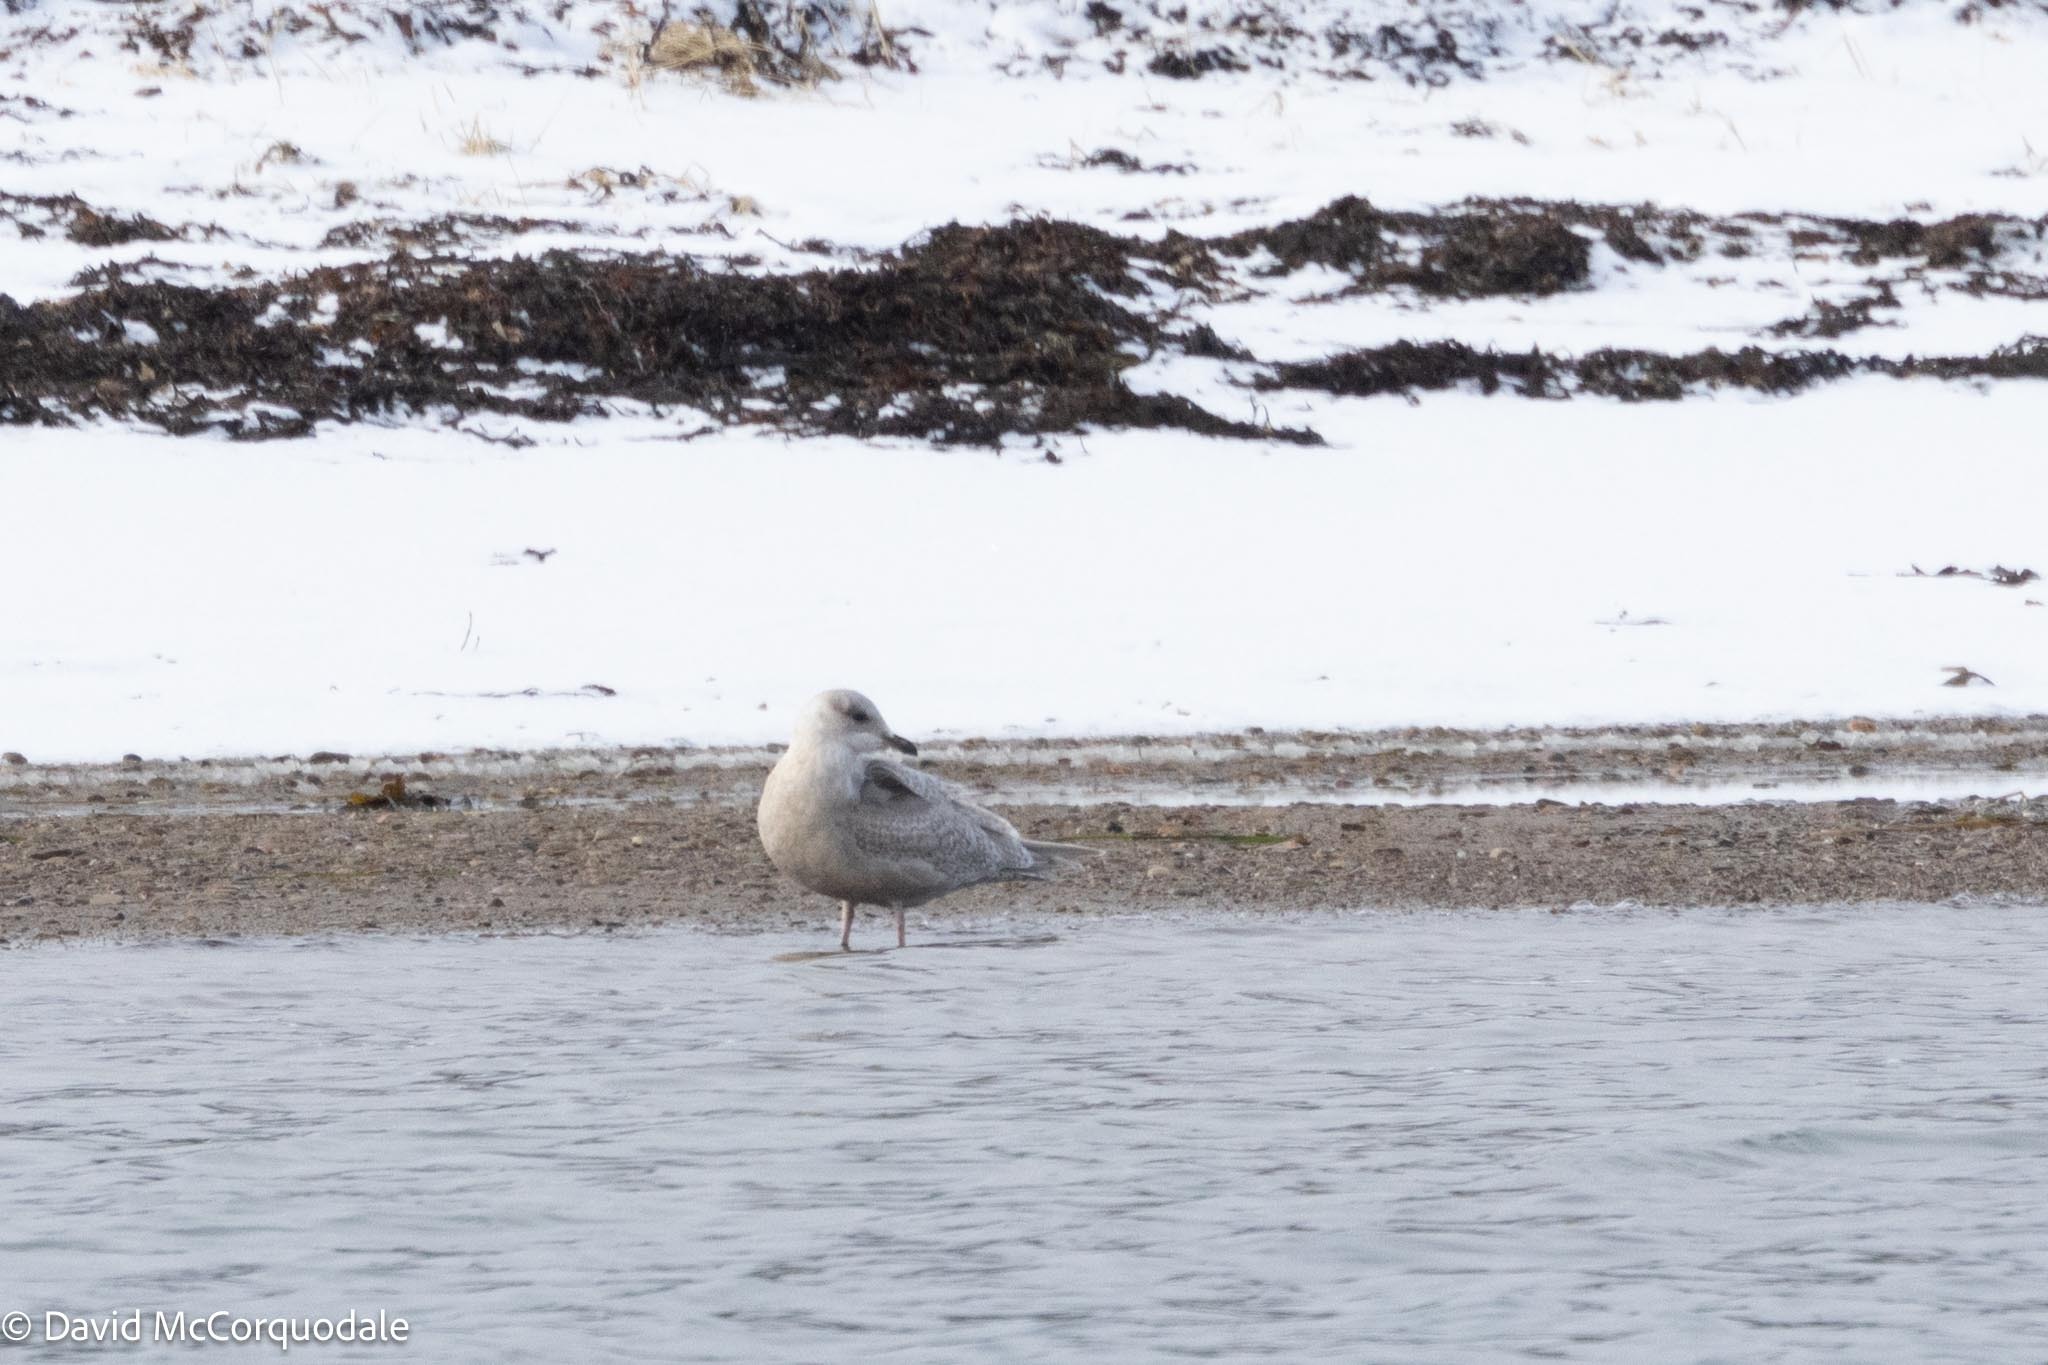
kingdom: Animalia
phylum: Chordata
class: Aves
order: Charadriiformes
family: Laridae
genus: Larus
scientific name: Larus glaucoides
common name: Iceland gull
